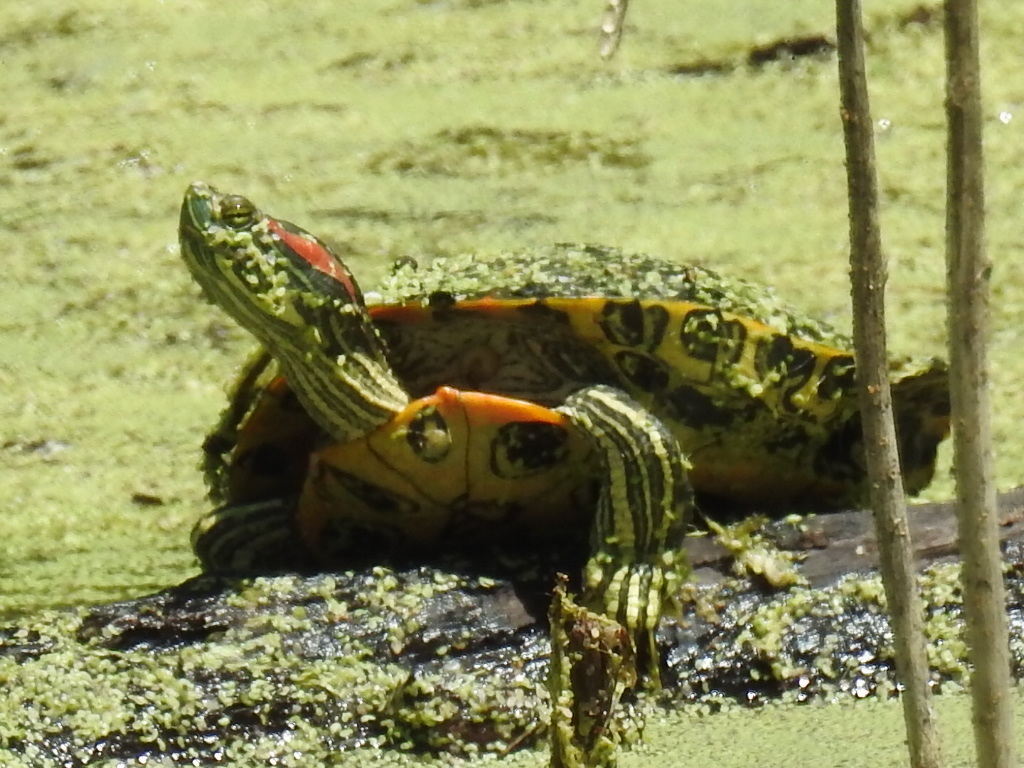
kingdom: Animalia
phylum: Chordata
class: Testudines
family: Emydidae
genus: Trachemys
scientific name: Trachemys scripta
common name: Slider
